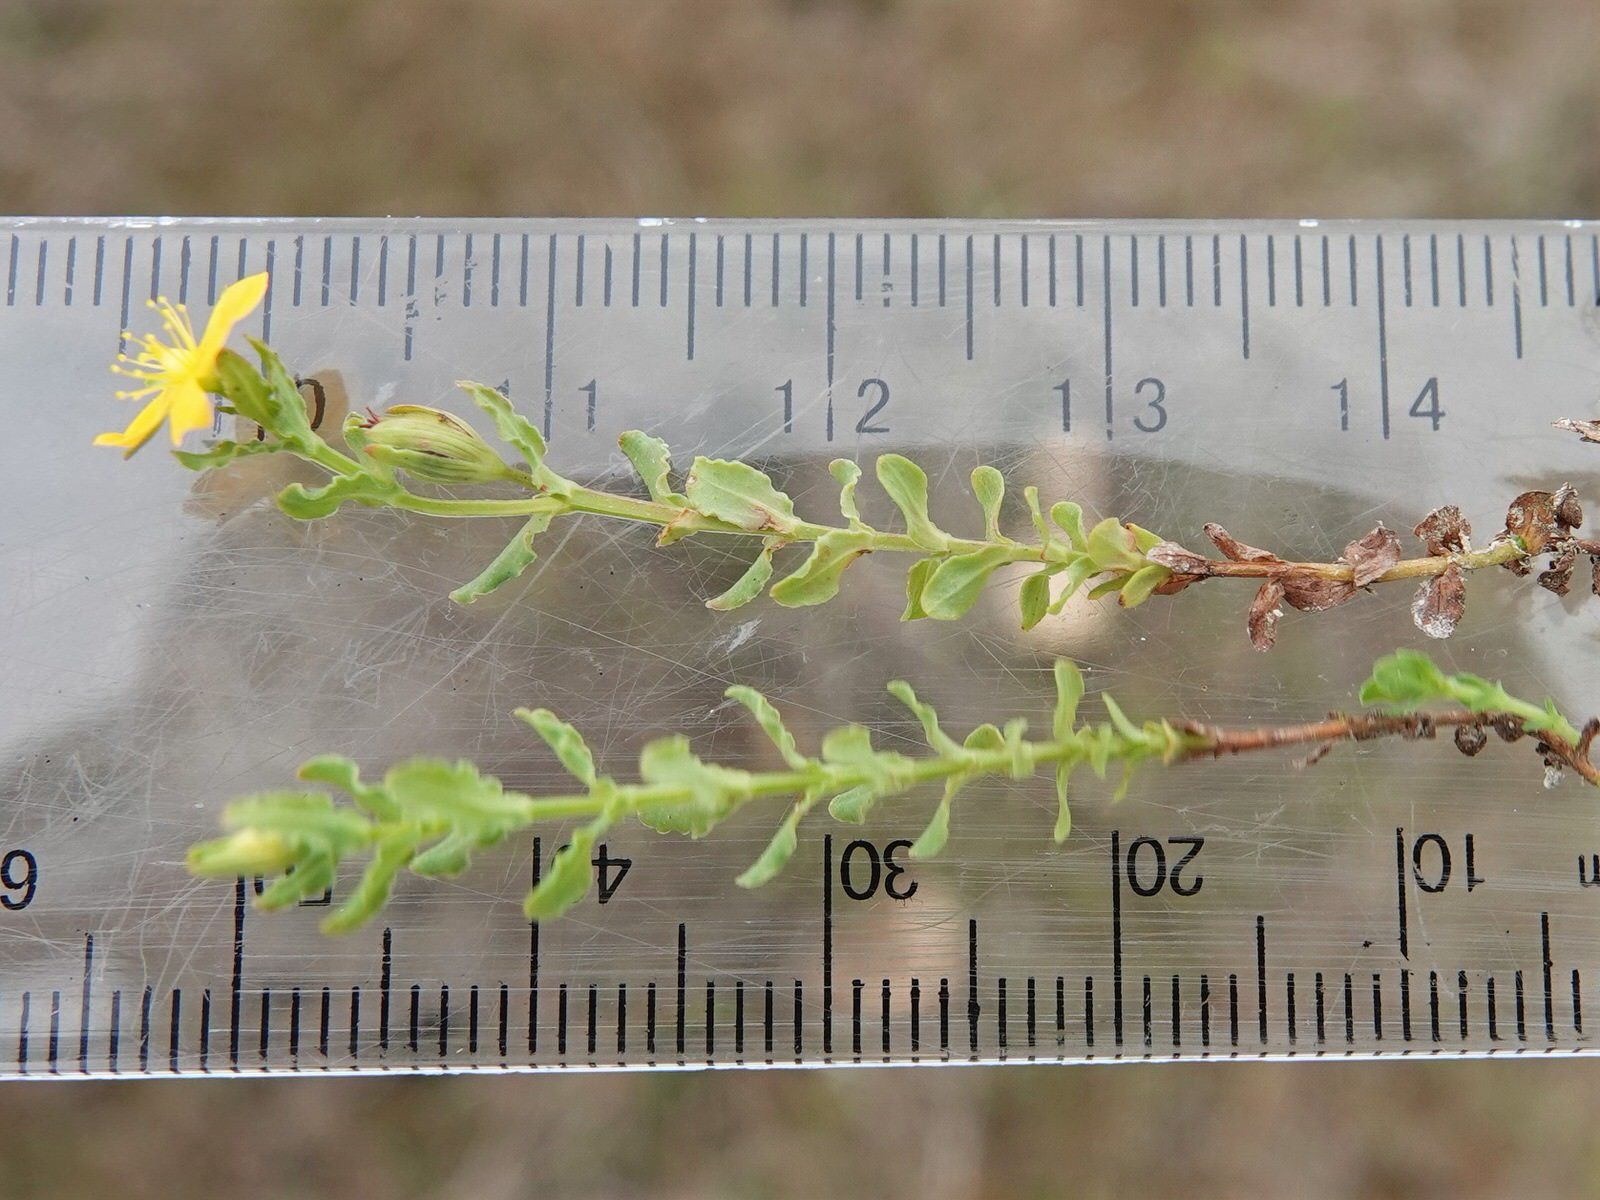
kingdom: Plantae
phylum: Tracheophyta
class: Magnoliopsida
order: Malpighiales
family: Hypericaceae
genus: Hypericum
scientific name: Hypericum japonicum
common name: Matted st. john's-wort
